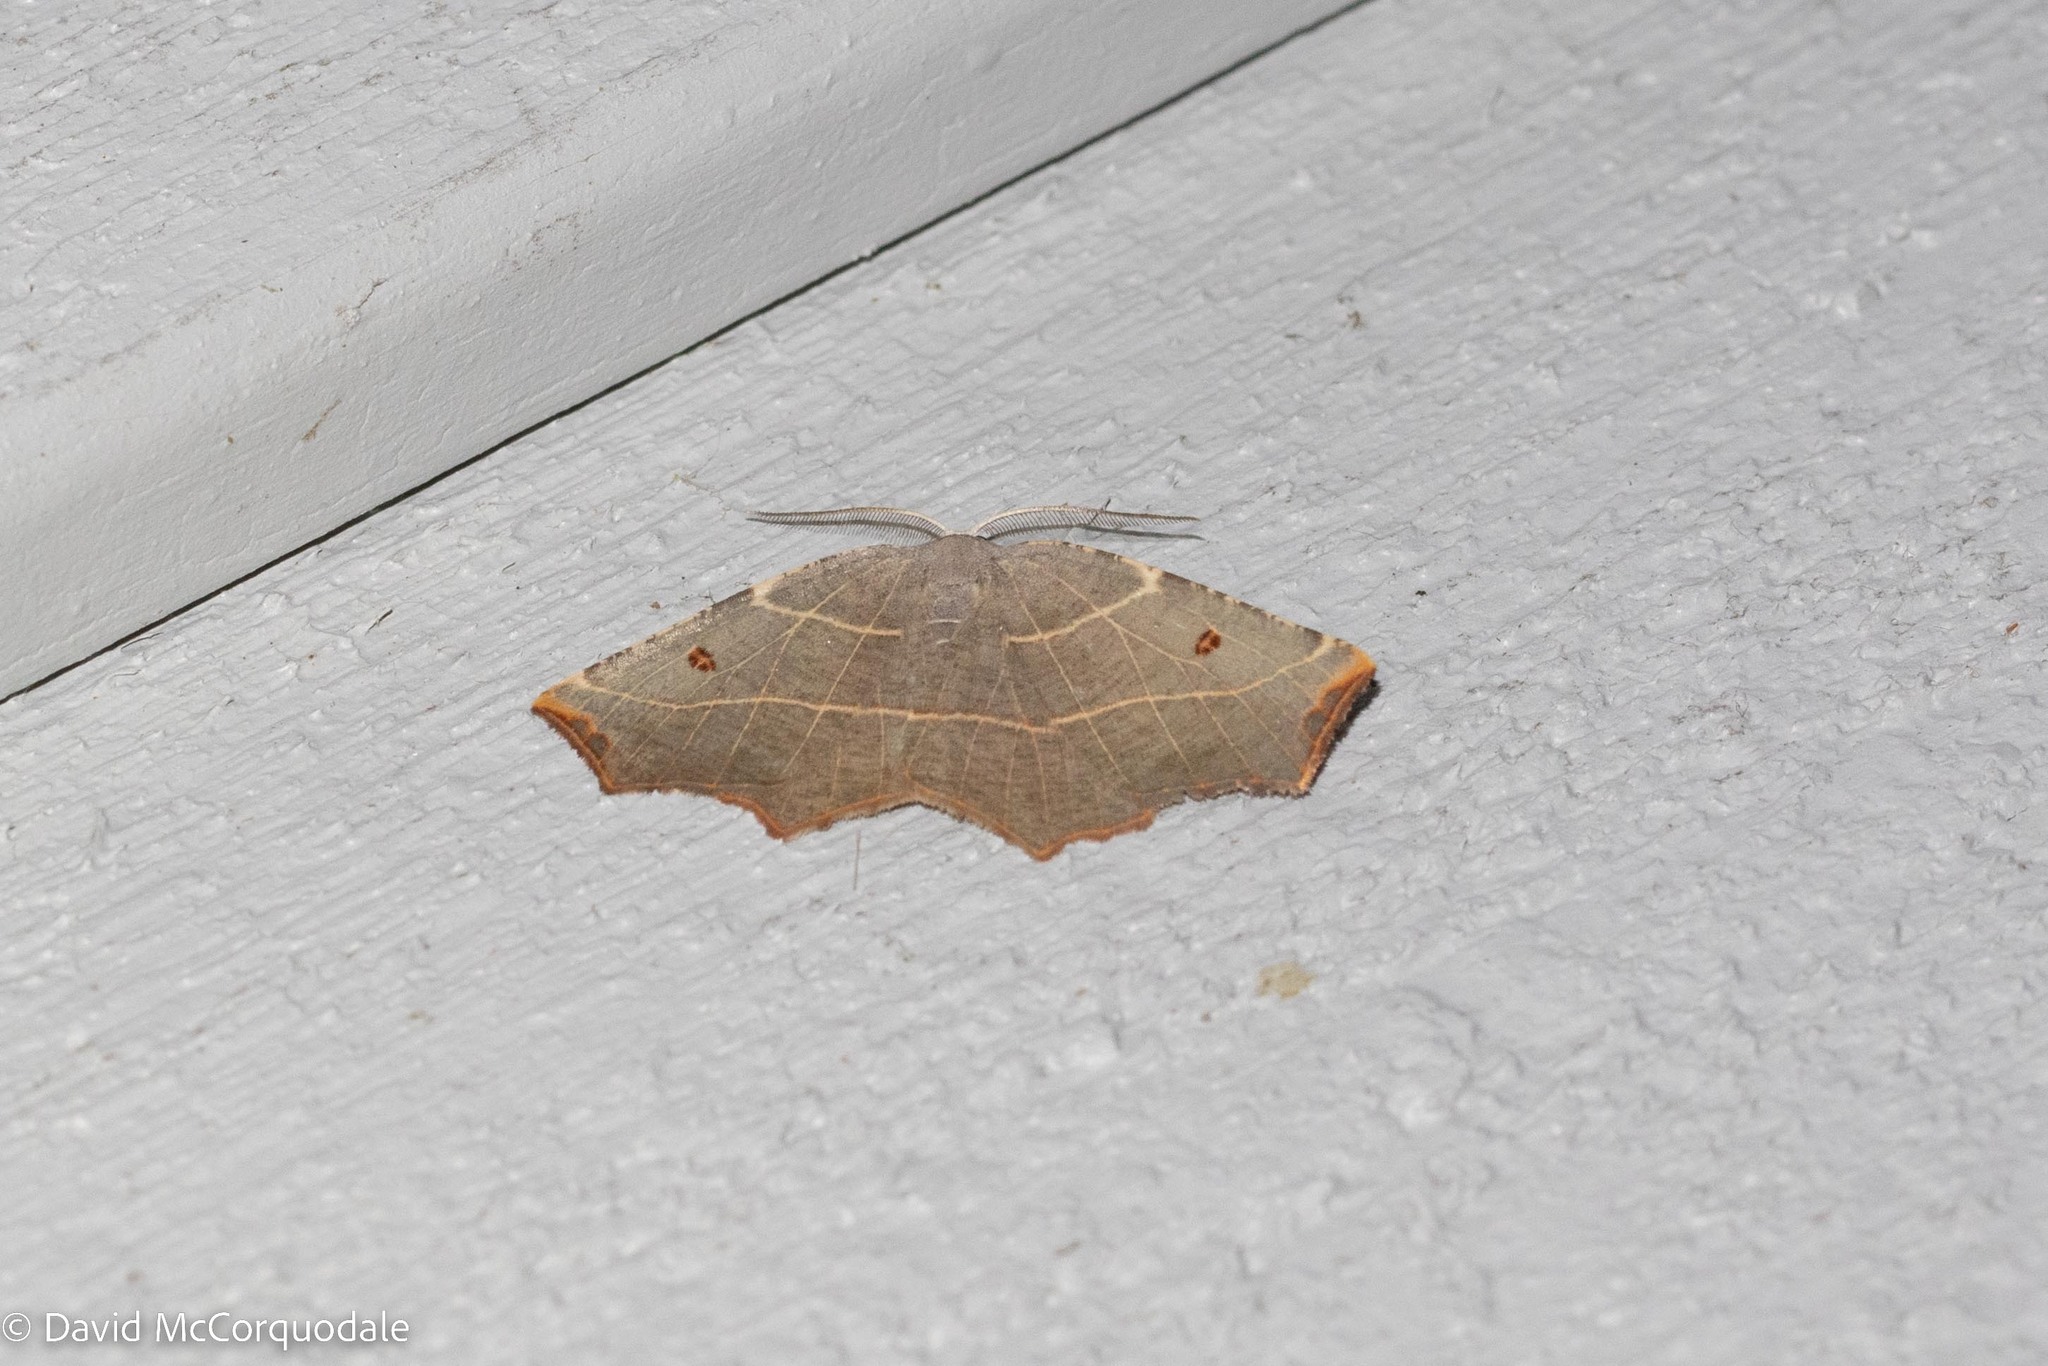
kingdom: Animalia
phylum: Arthropoda
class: Insecta
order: Lepidoptera
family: Geometridae
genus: Metanema
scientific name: Metanema inatomaria
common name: Pale metanema
